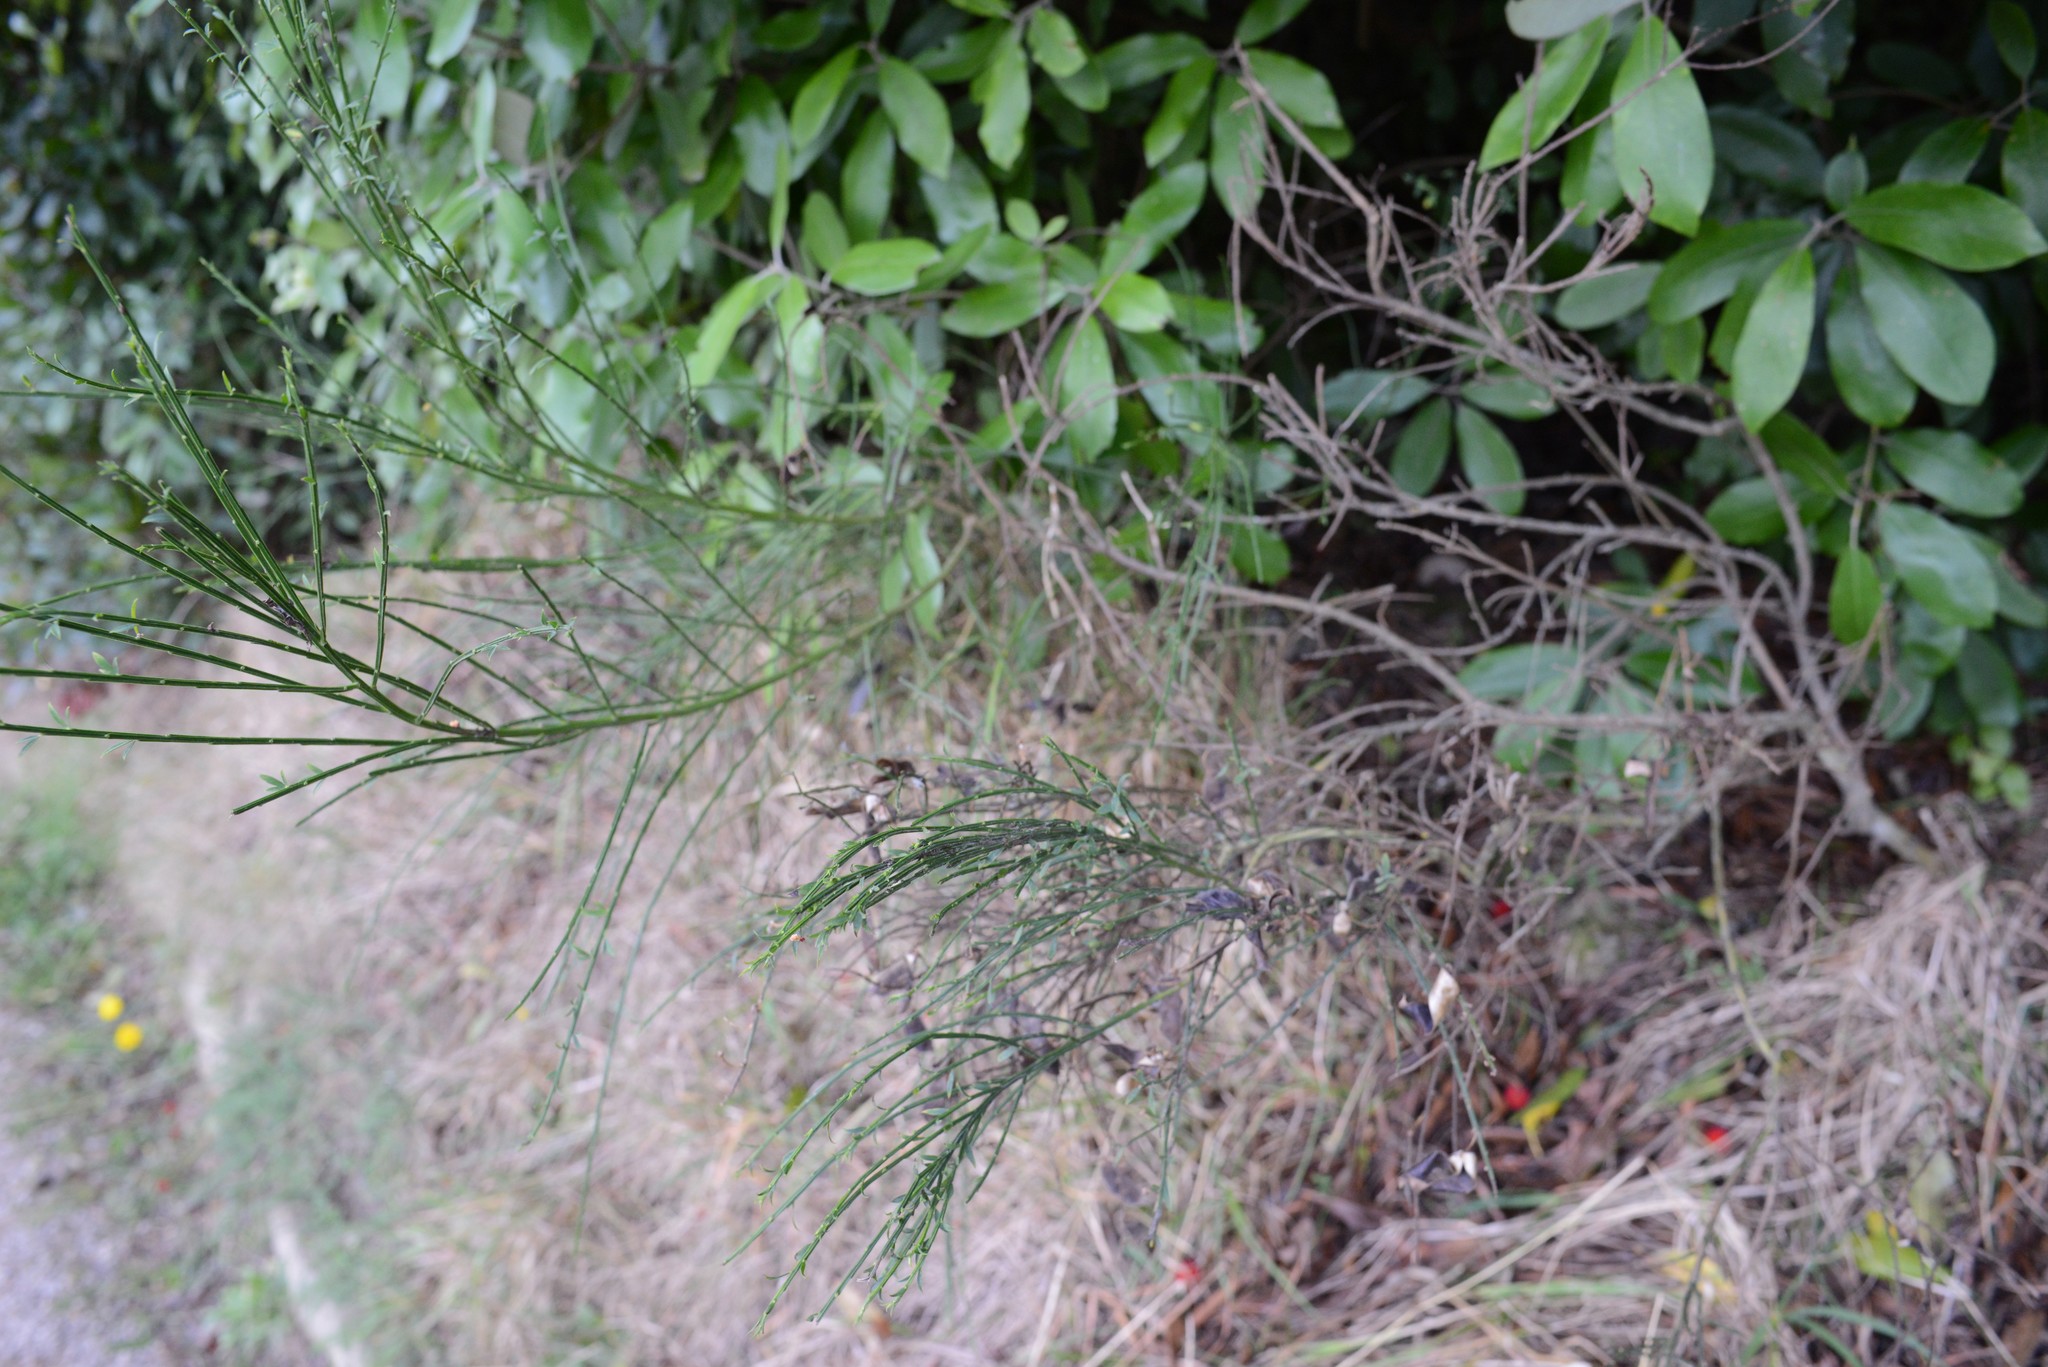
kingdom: Plantae
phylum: Tracheophyta
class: Magnoliopsida
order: Fabales
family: Fabaceae
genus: Cytisus
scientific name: Cytisus scoparius
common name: Scotch broom
